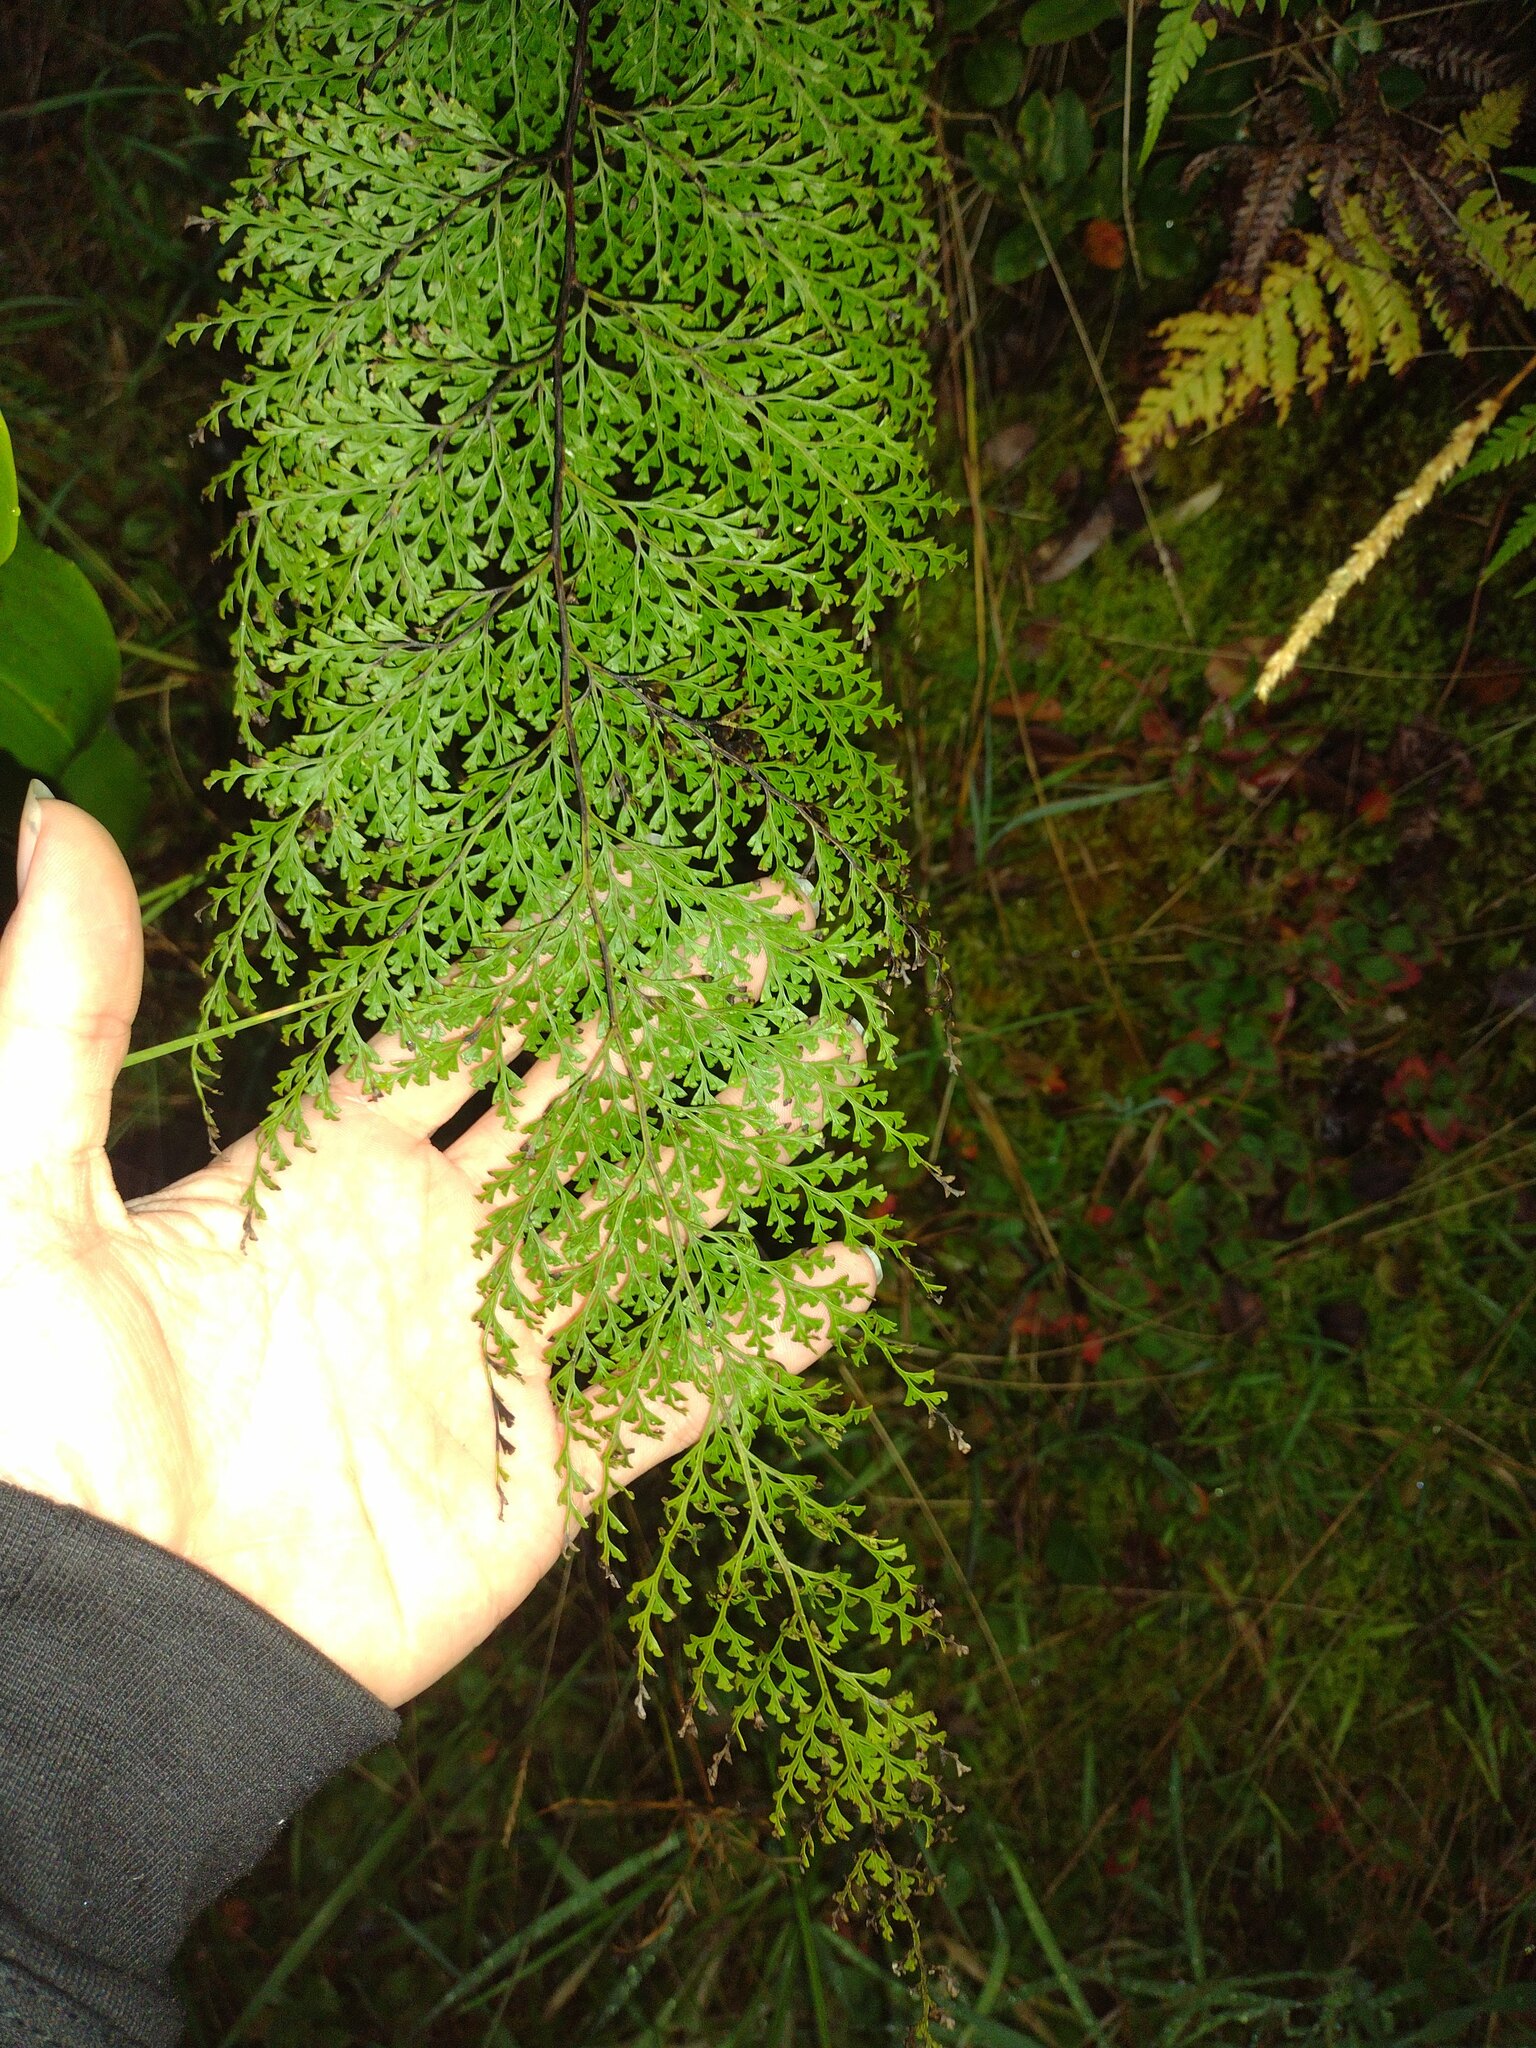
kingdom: Plantae
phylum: Tracheophyta
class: Polypodiopsida
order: Polypodiales
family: Lindsaeaceae
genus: Odontosoria
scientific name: Odontosoria chinensis
